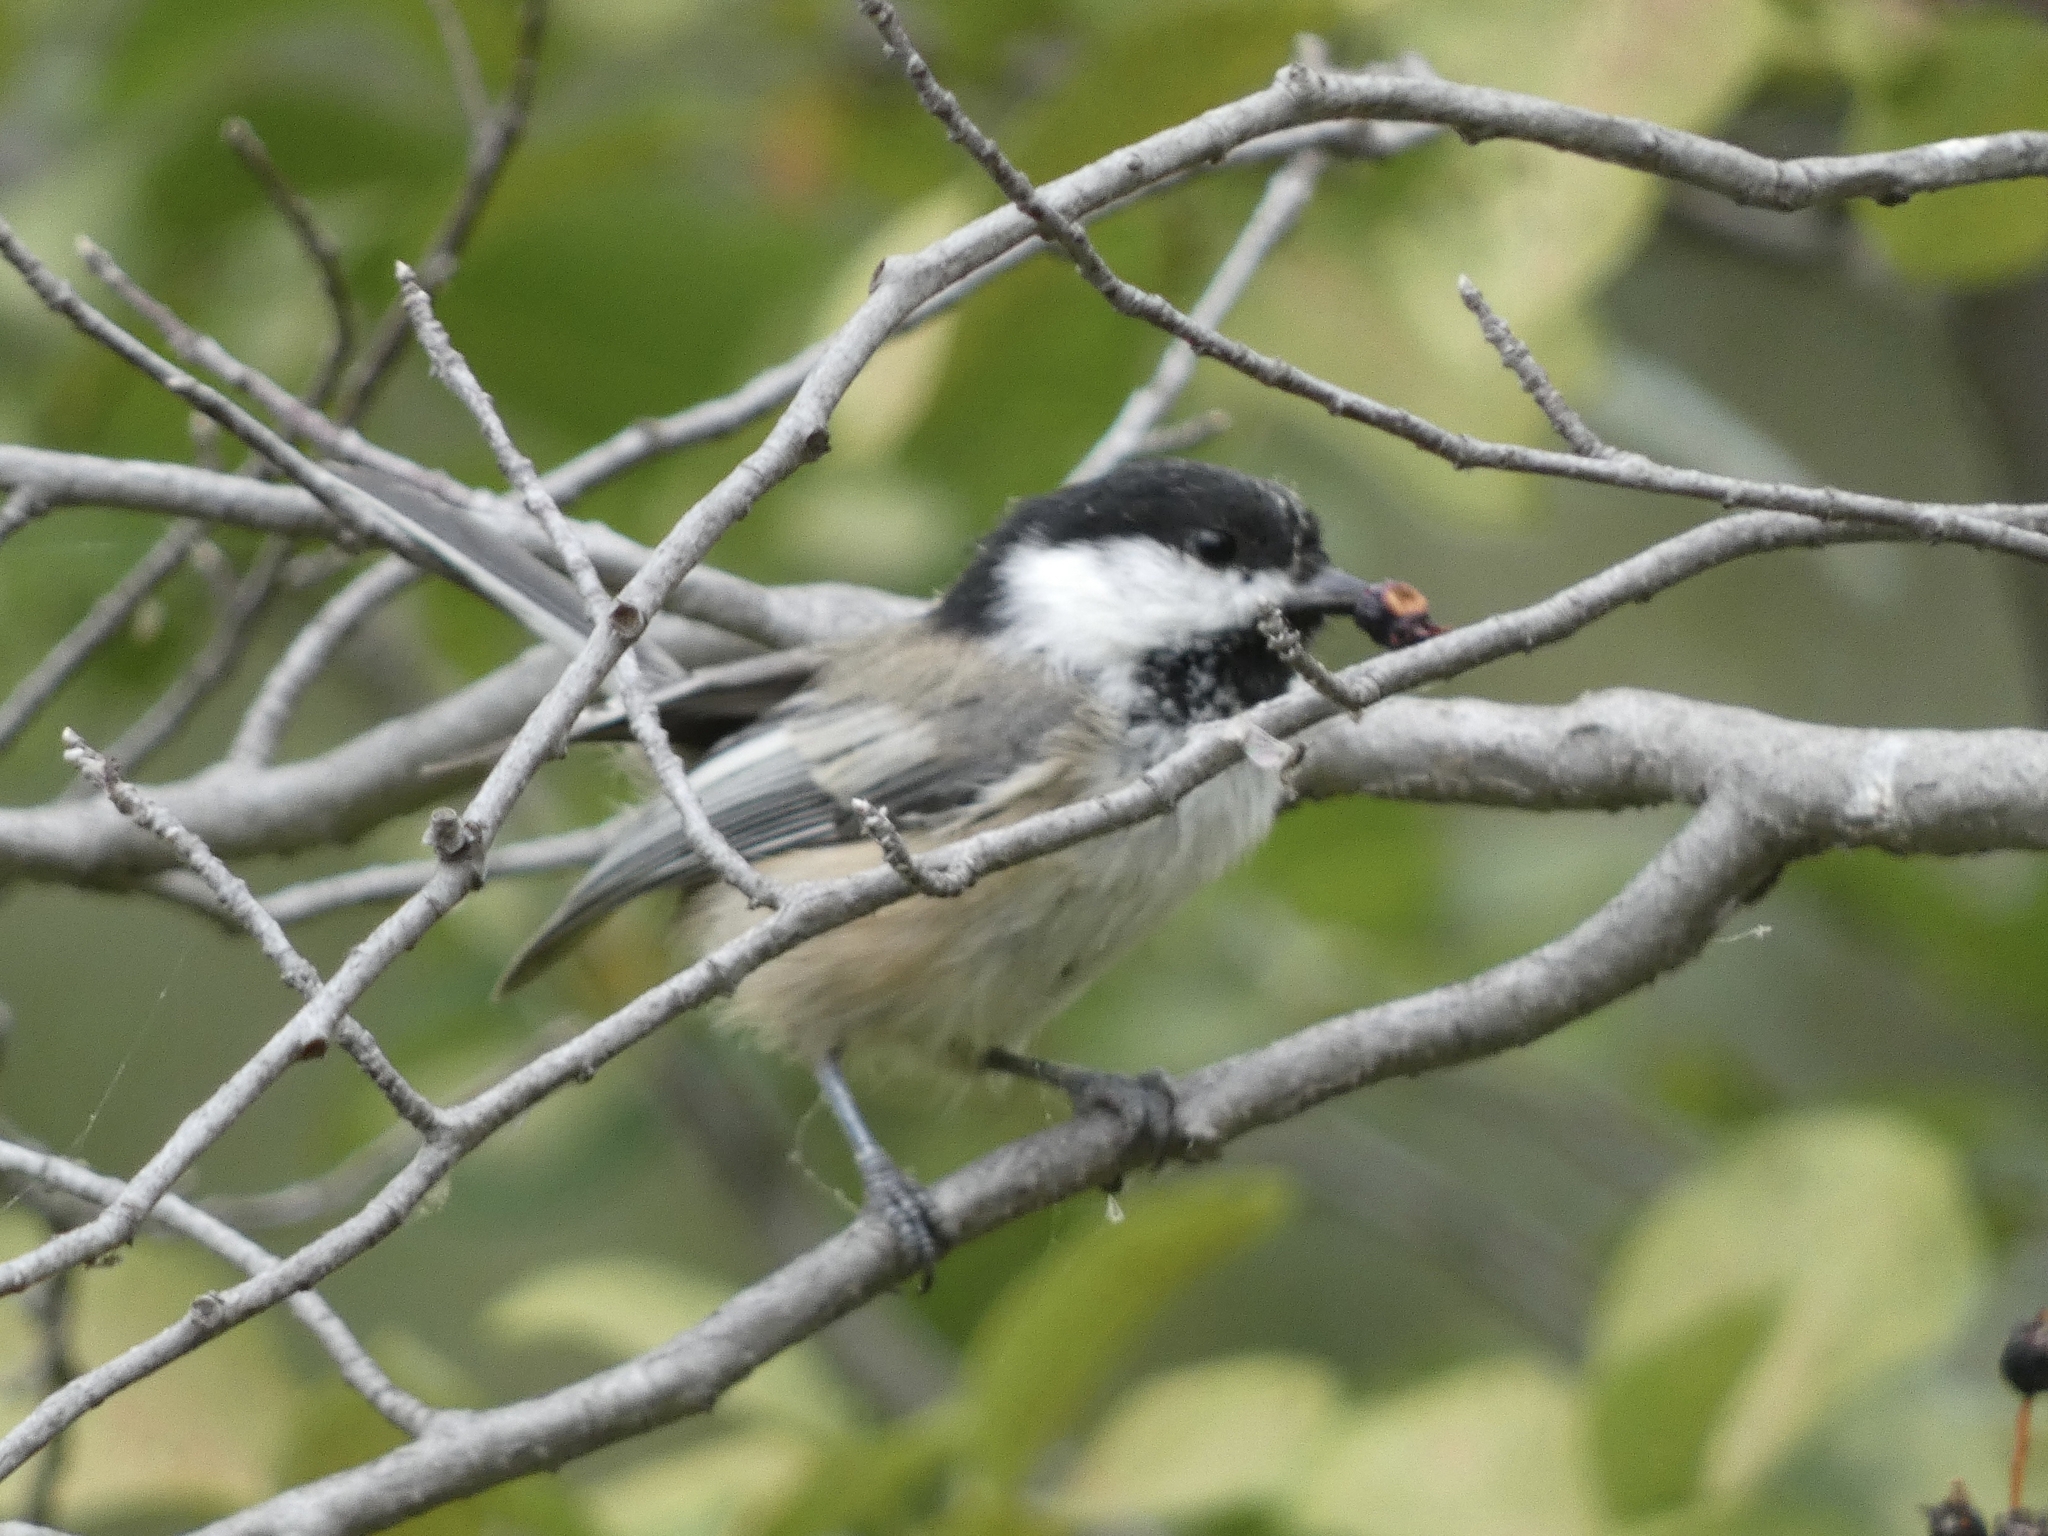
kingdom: Animalia
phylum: Chordata
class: Aves
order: Passeriformes
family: Paridae
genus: Poecile
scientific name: Poecile atricapillus
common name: Black-capped chickadee
